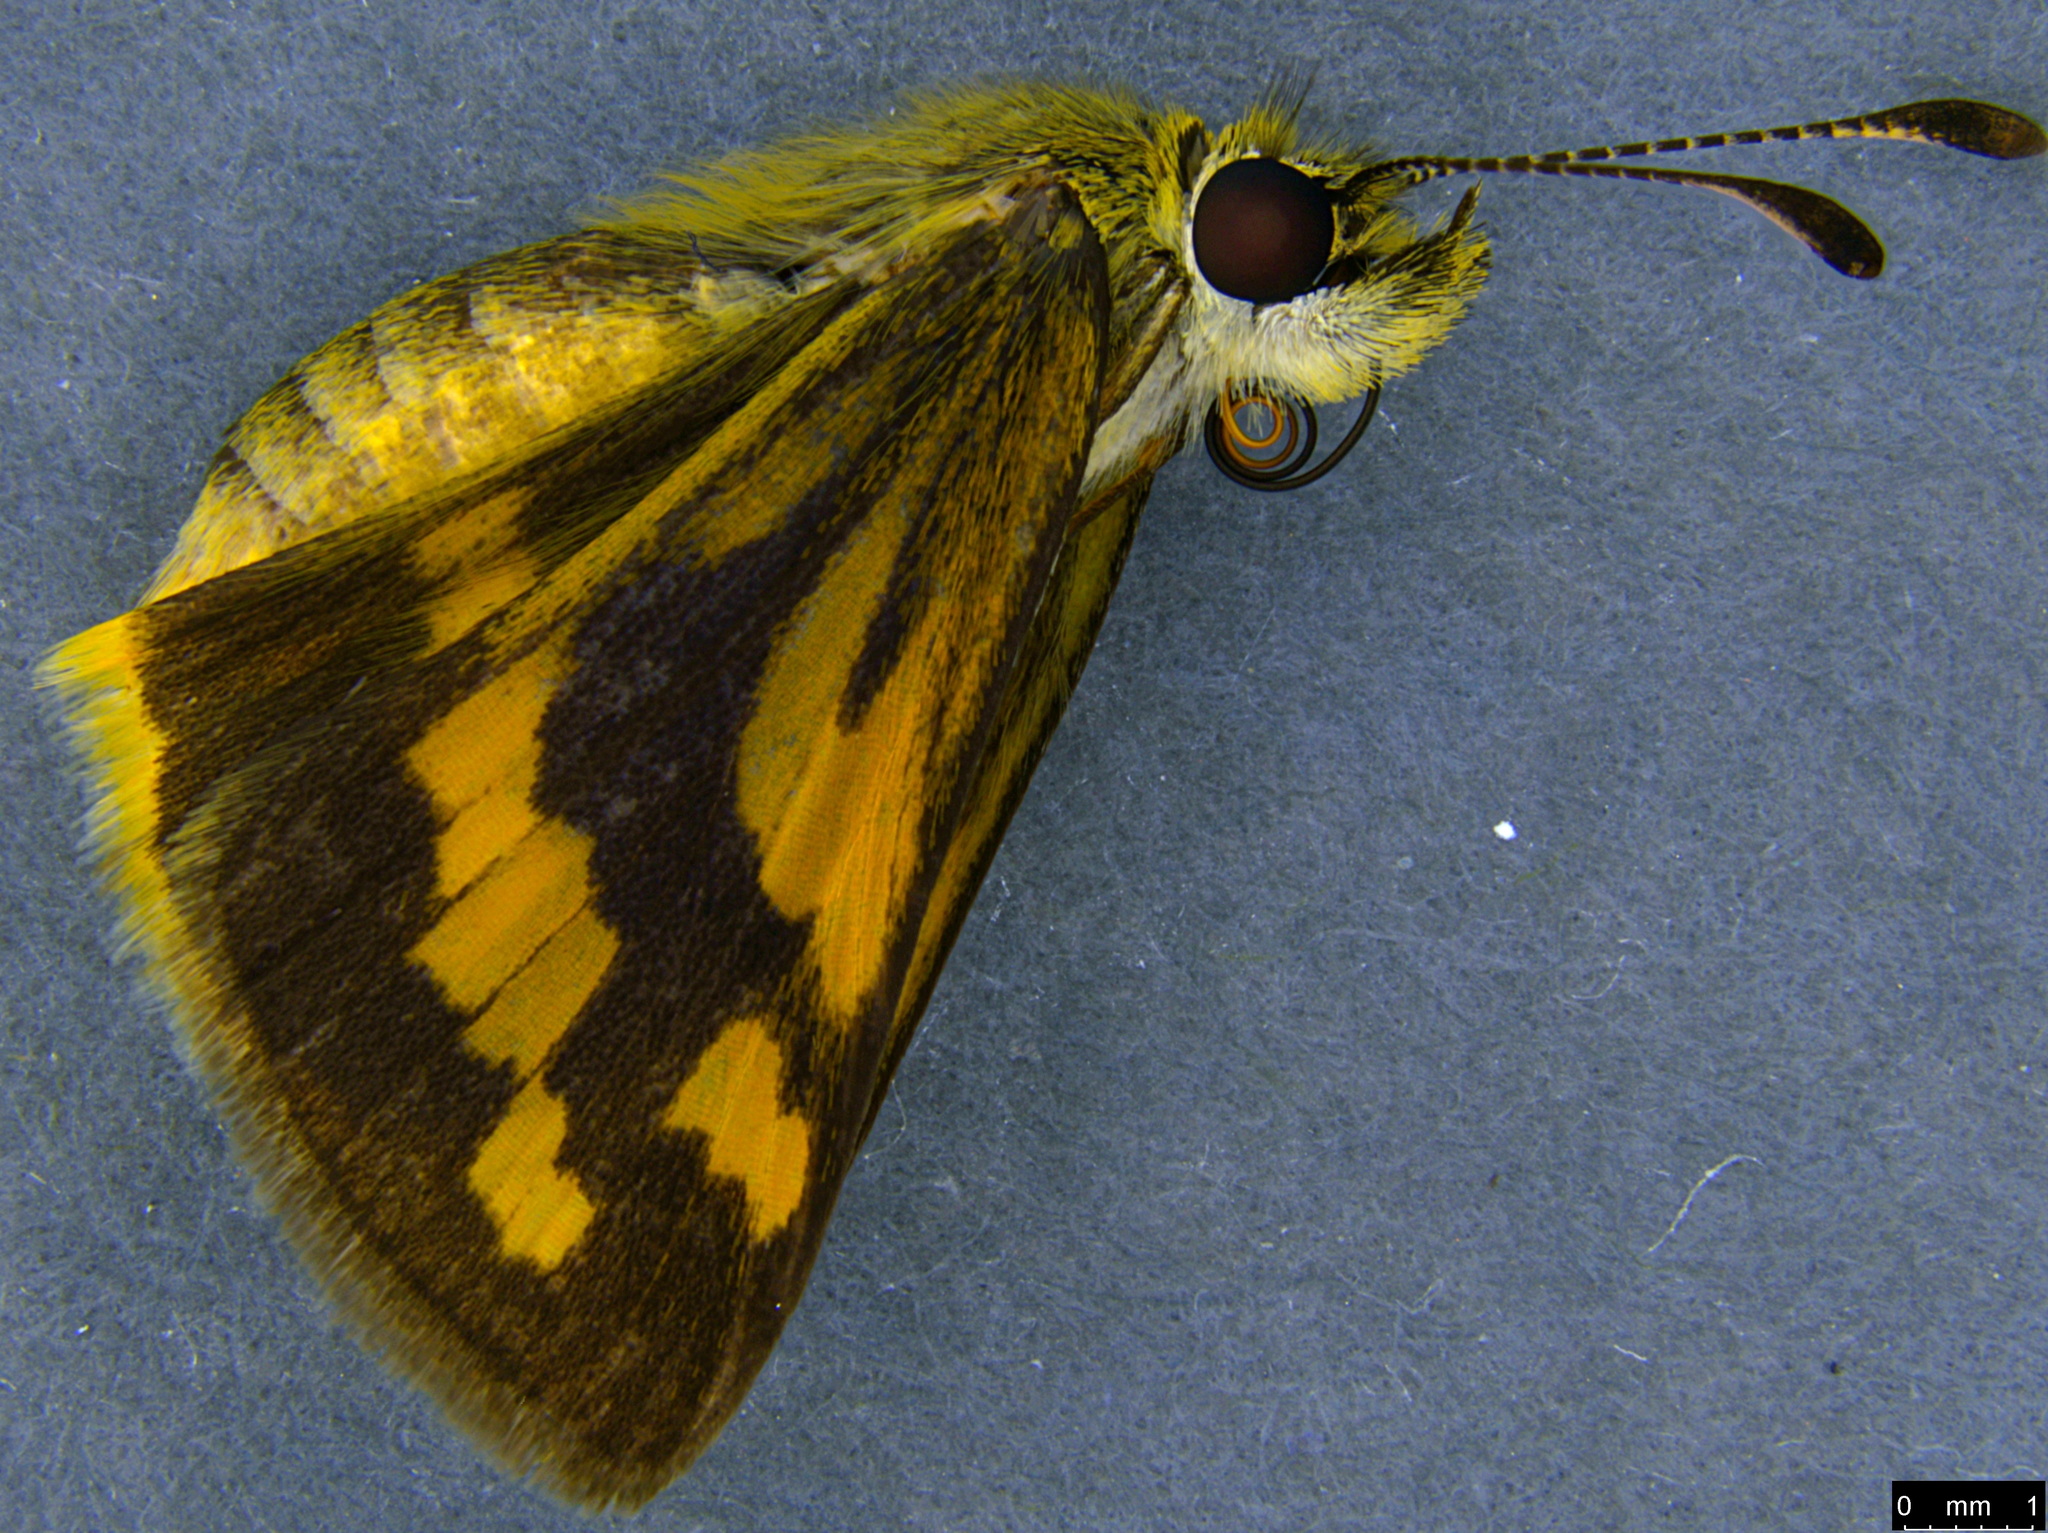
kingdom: Animalia
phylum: Arthropoda
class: Insecta
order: Lepidoptera
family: Hesperiidae
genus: Ocybadistes
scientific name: Ocybadistes walkeri
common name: Yellow-banded dart
